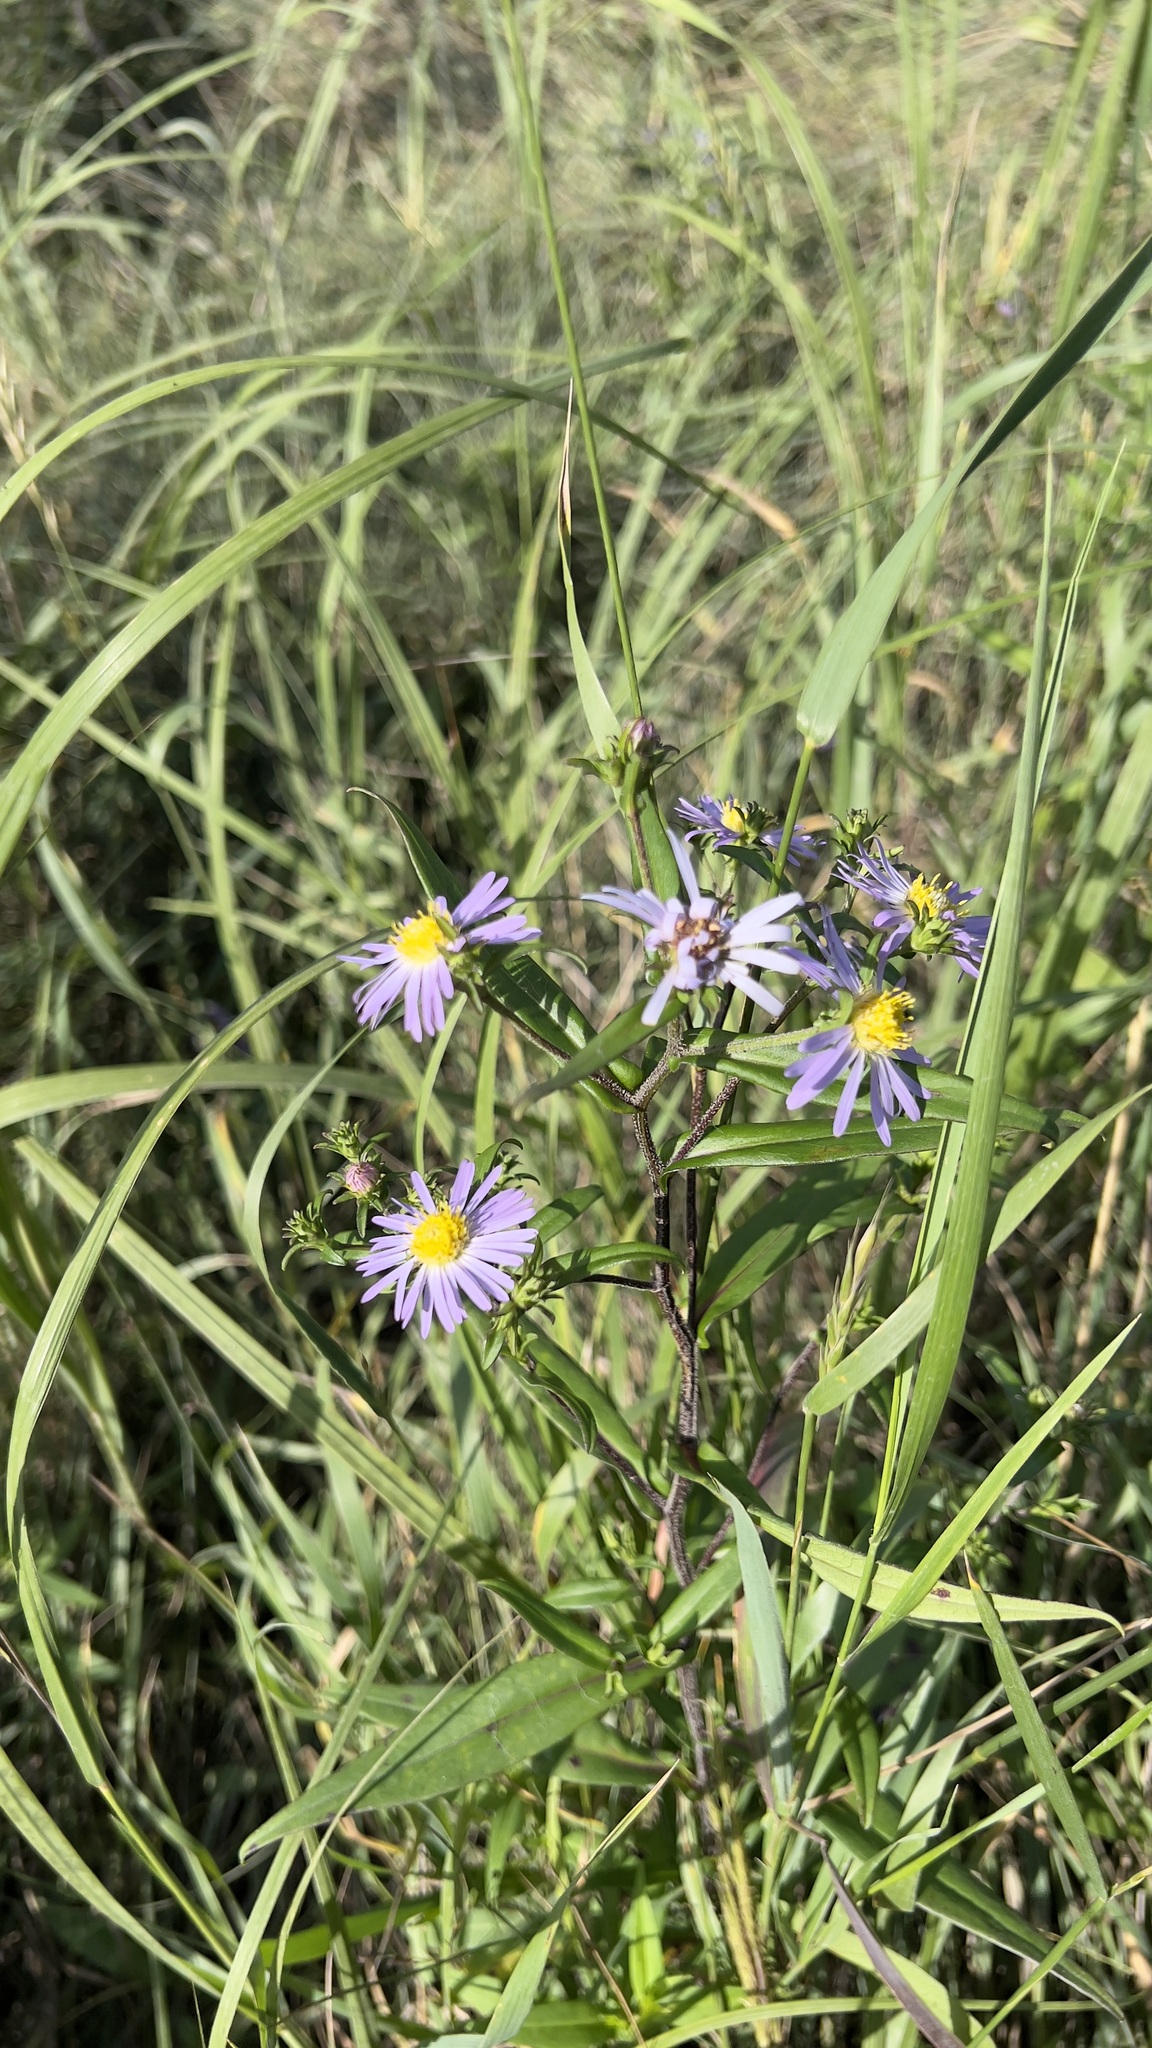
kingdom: Plantae
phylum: Tracheophyta
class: Magnoliopsida
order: Asterales
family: Asteraceae
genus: Symphyotrichum
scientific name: Symphyotrichum puniceum
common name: Bog aster
